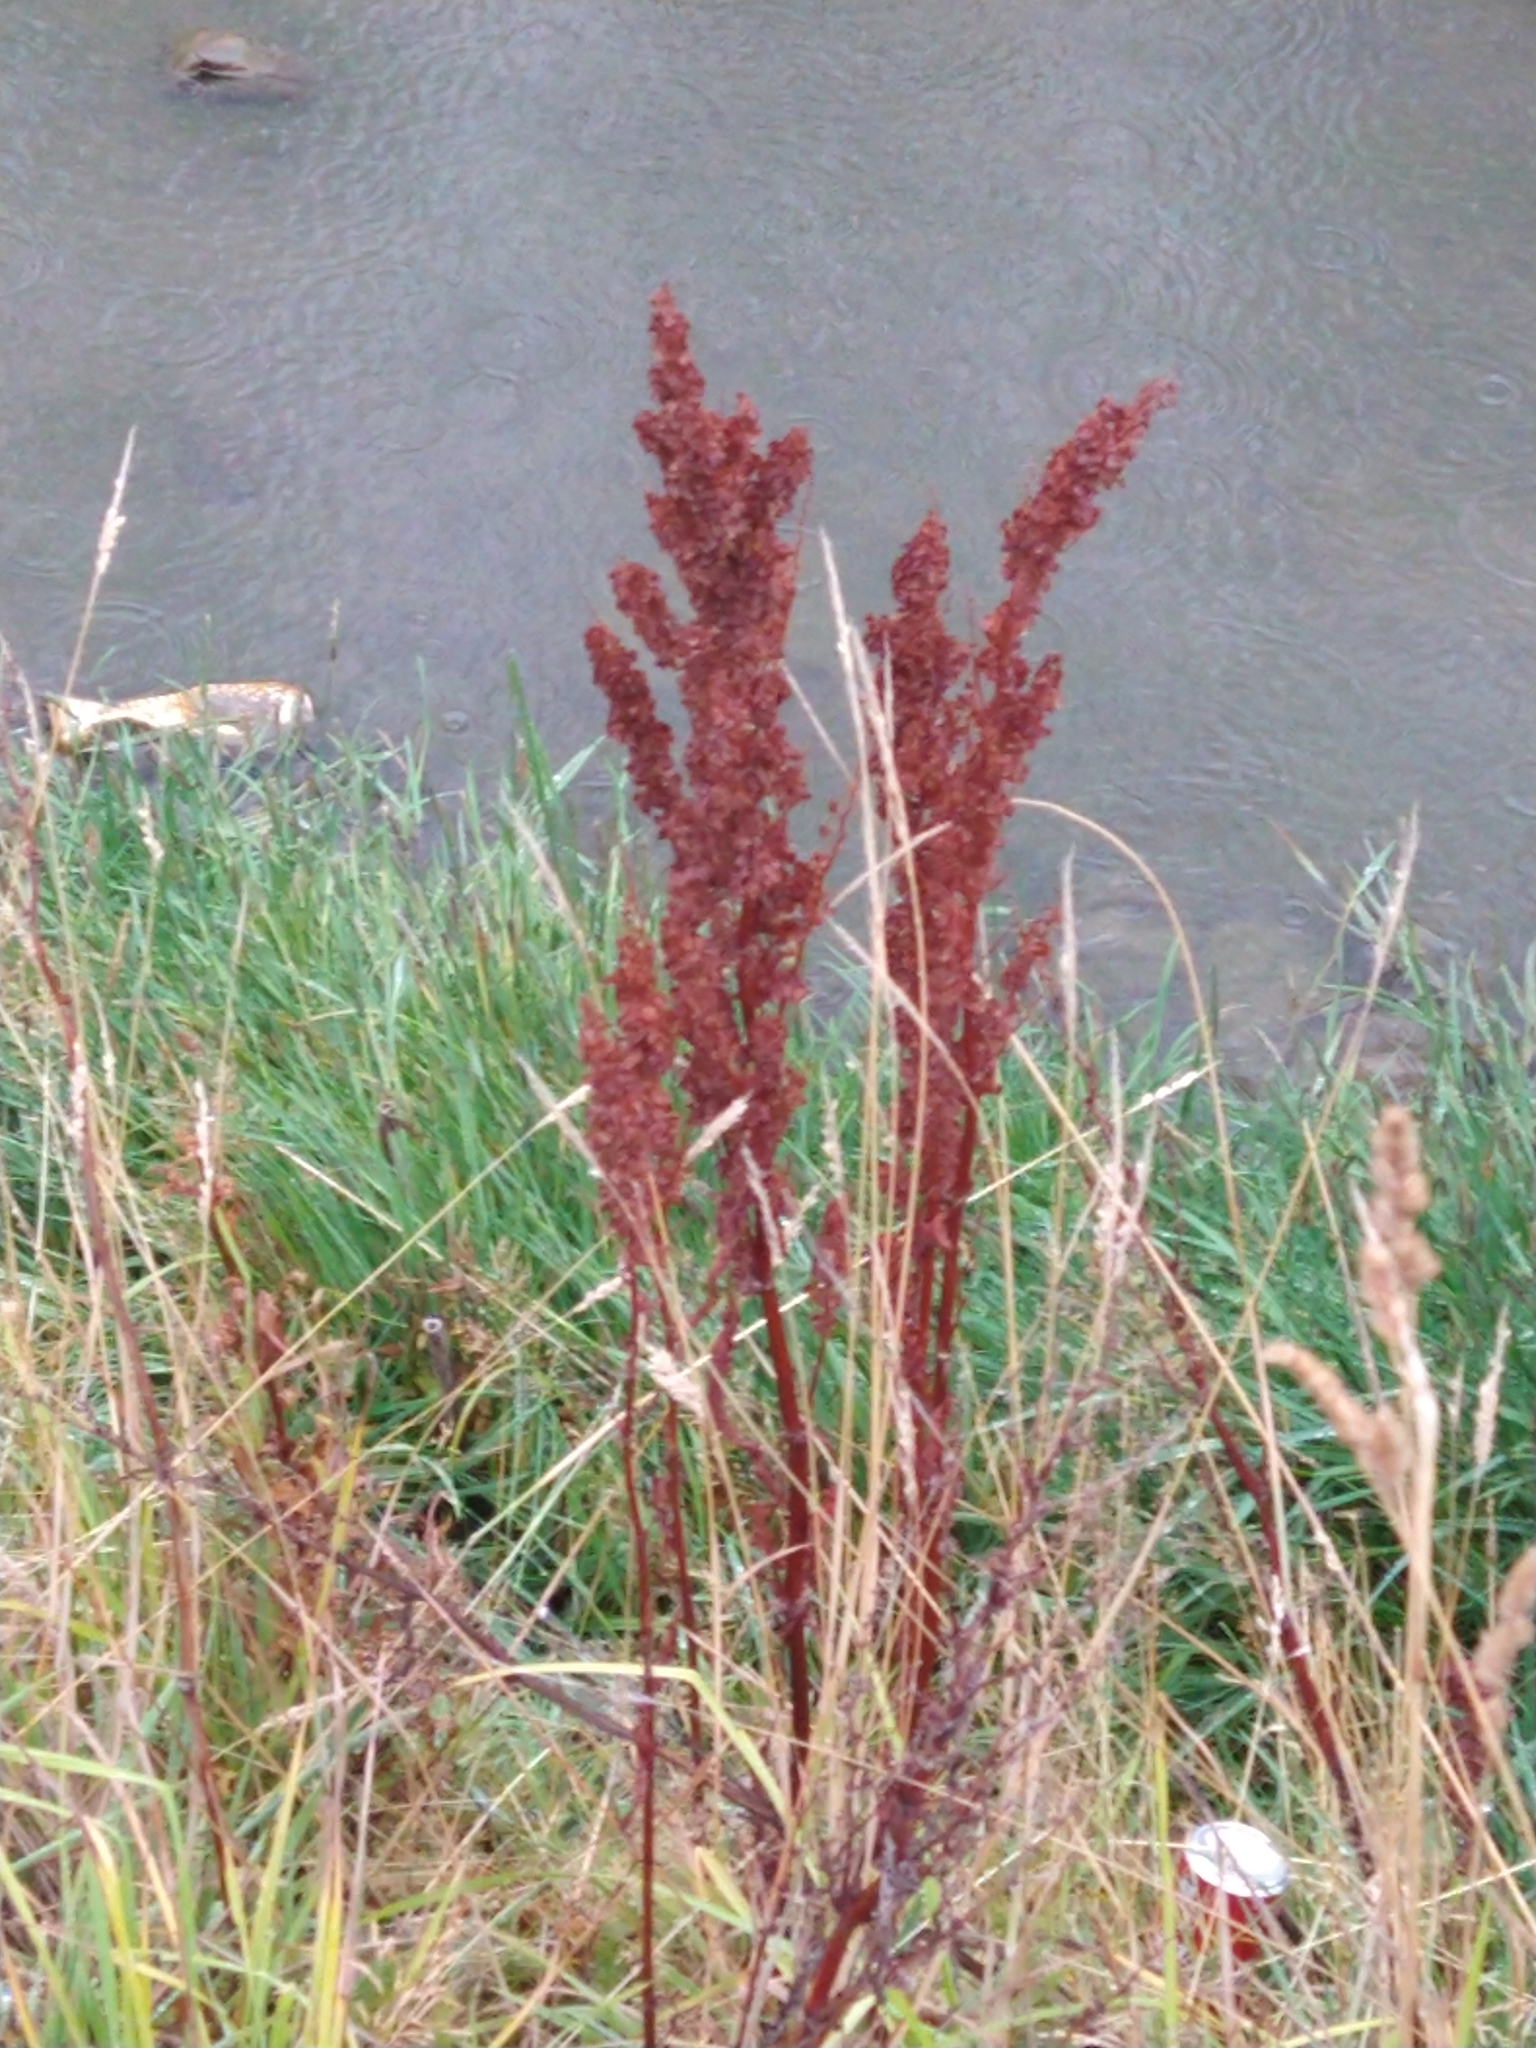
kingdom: Plantae
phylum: Tracheophyta
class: Magnoliopsida
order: Caryophyllales
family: Polygonaceae
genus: Rumex
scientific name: Rumex crispus
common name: Curled dock
